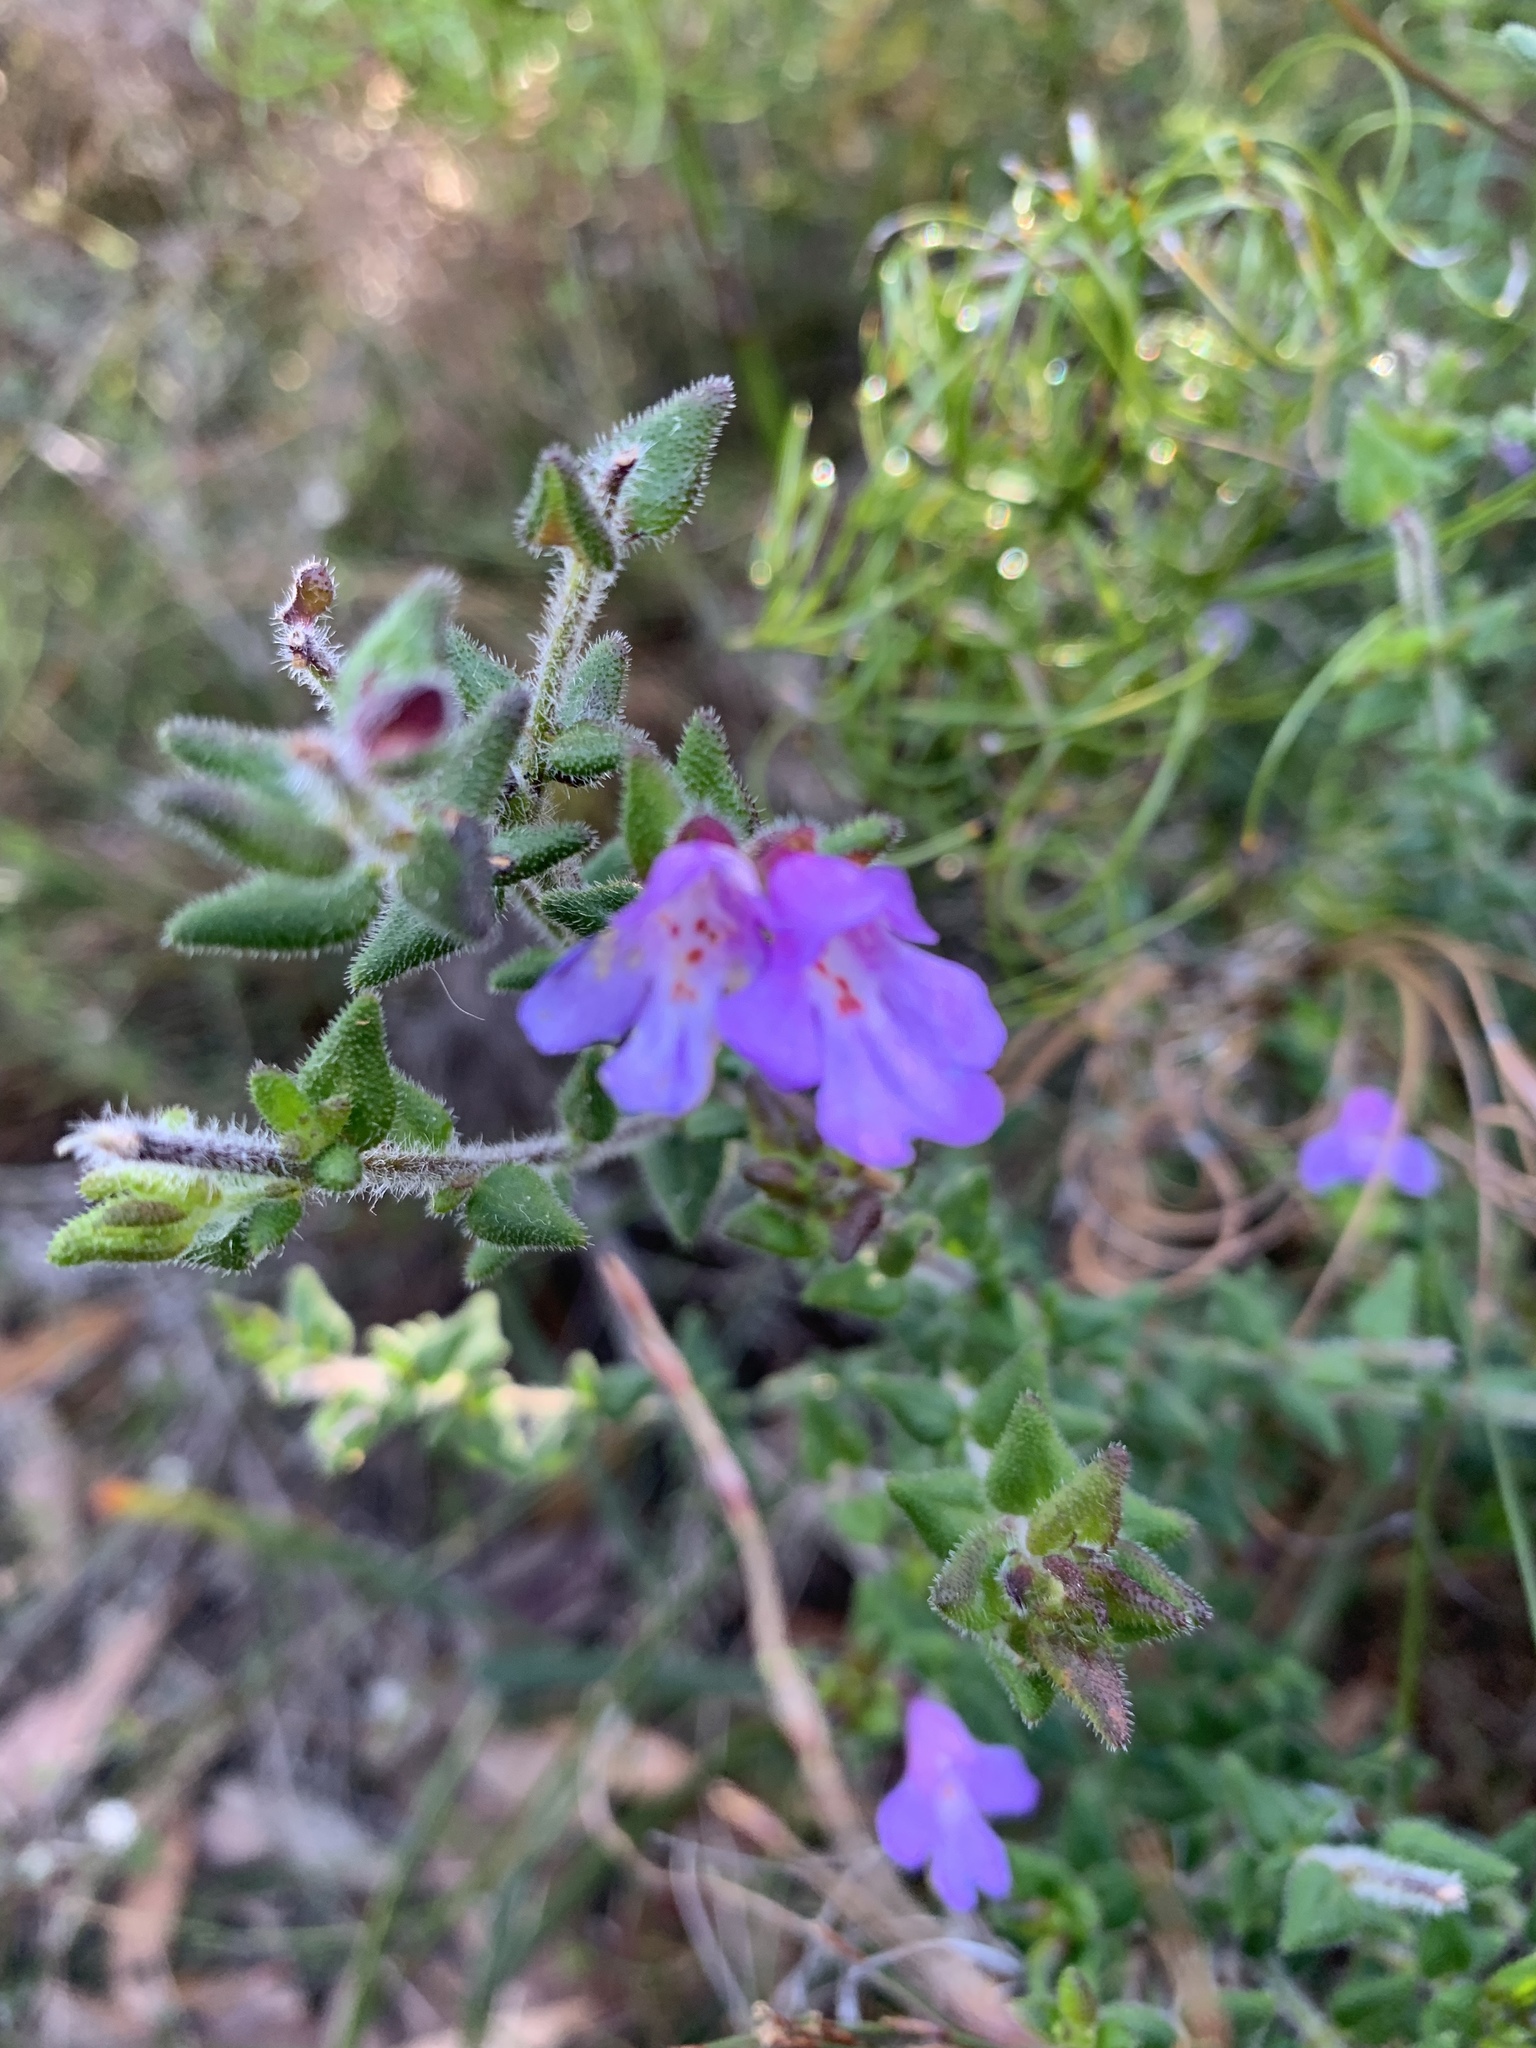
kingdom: Plantae
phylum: Tracheophyta
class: Magnoliopsida
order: Lamiales
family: Lamiaceae
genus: Prostanthera
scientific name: Prostanthera densa
